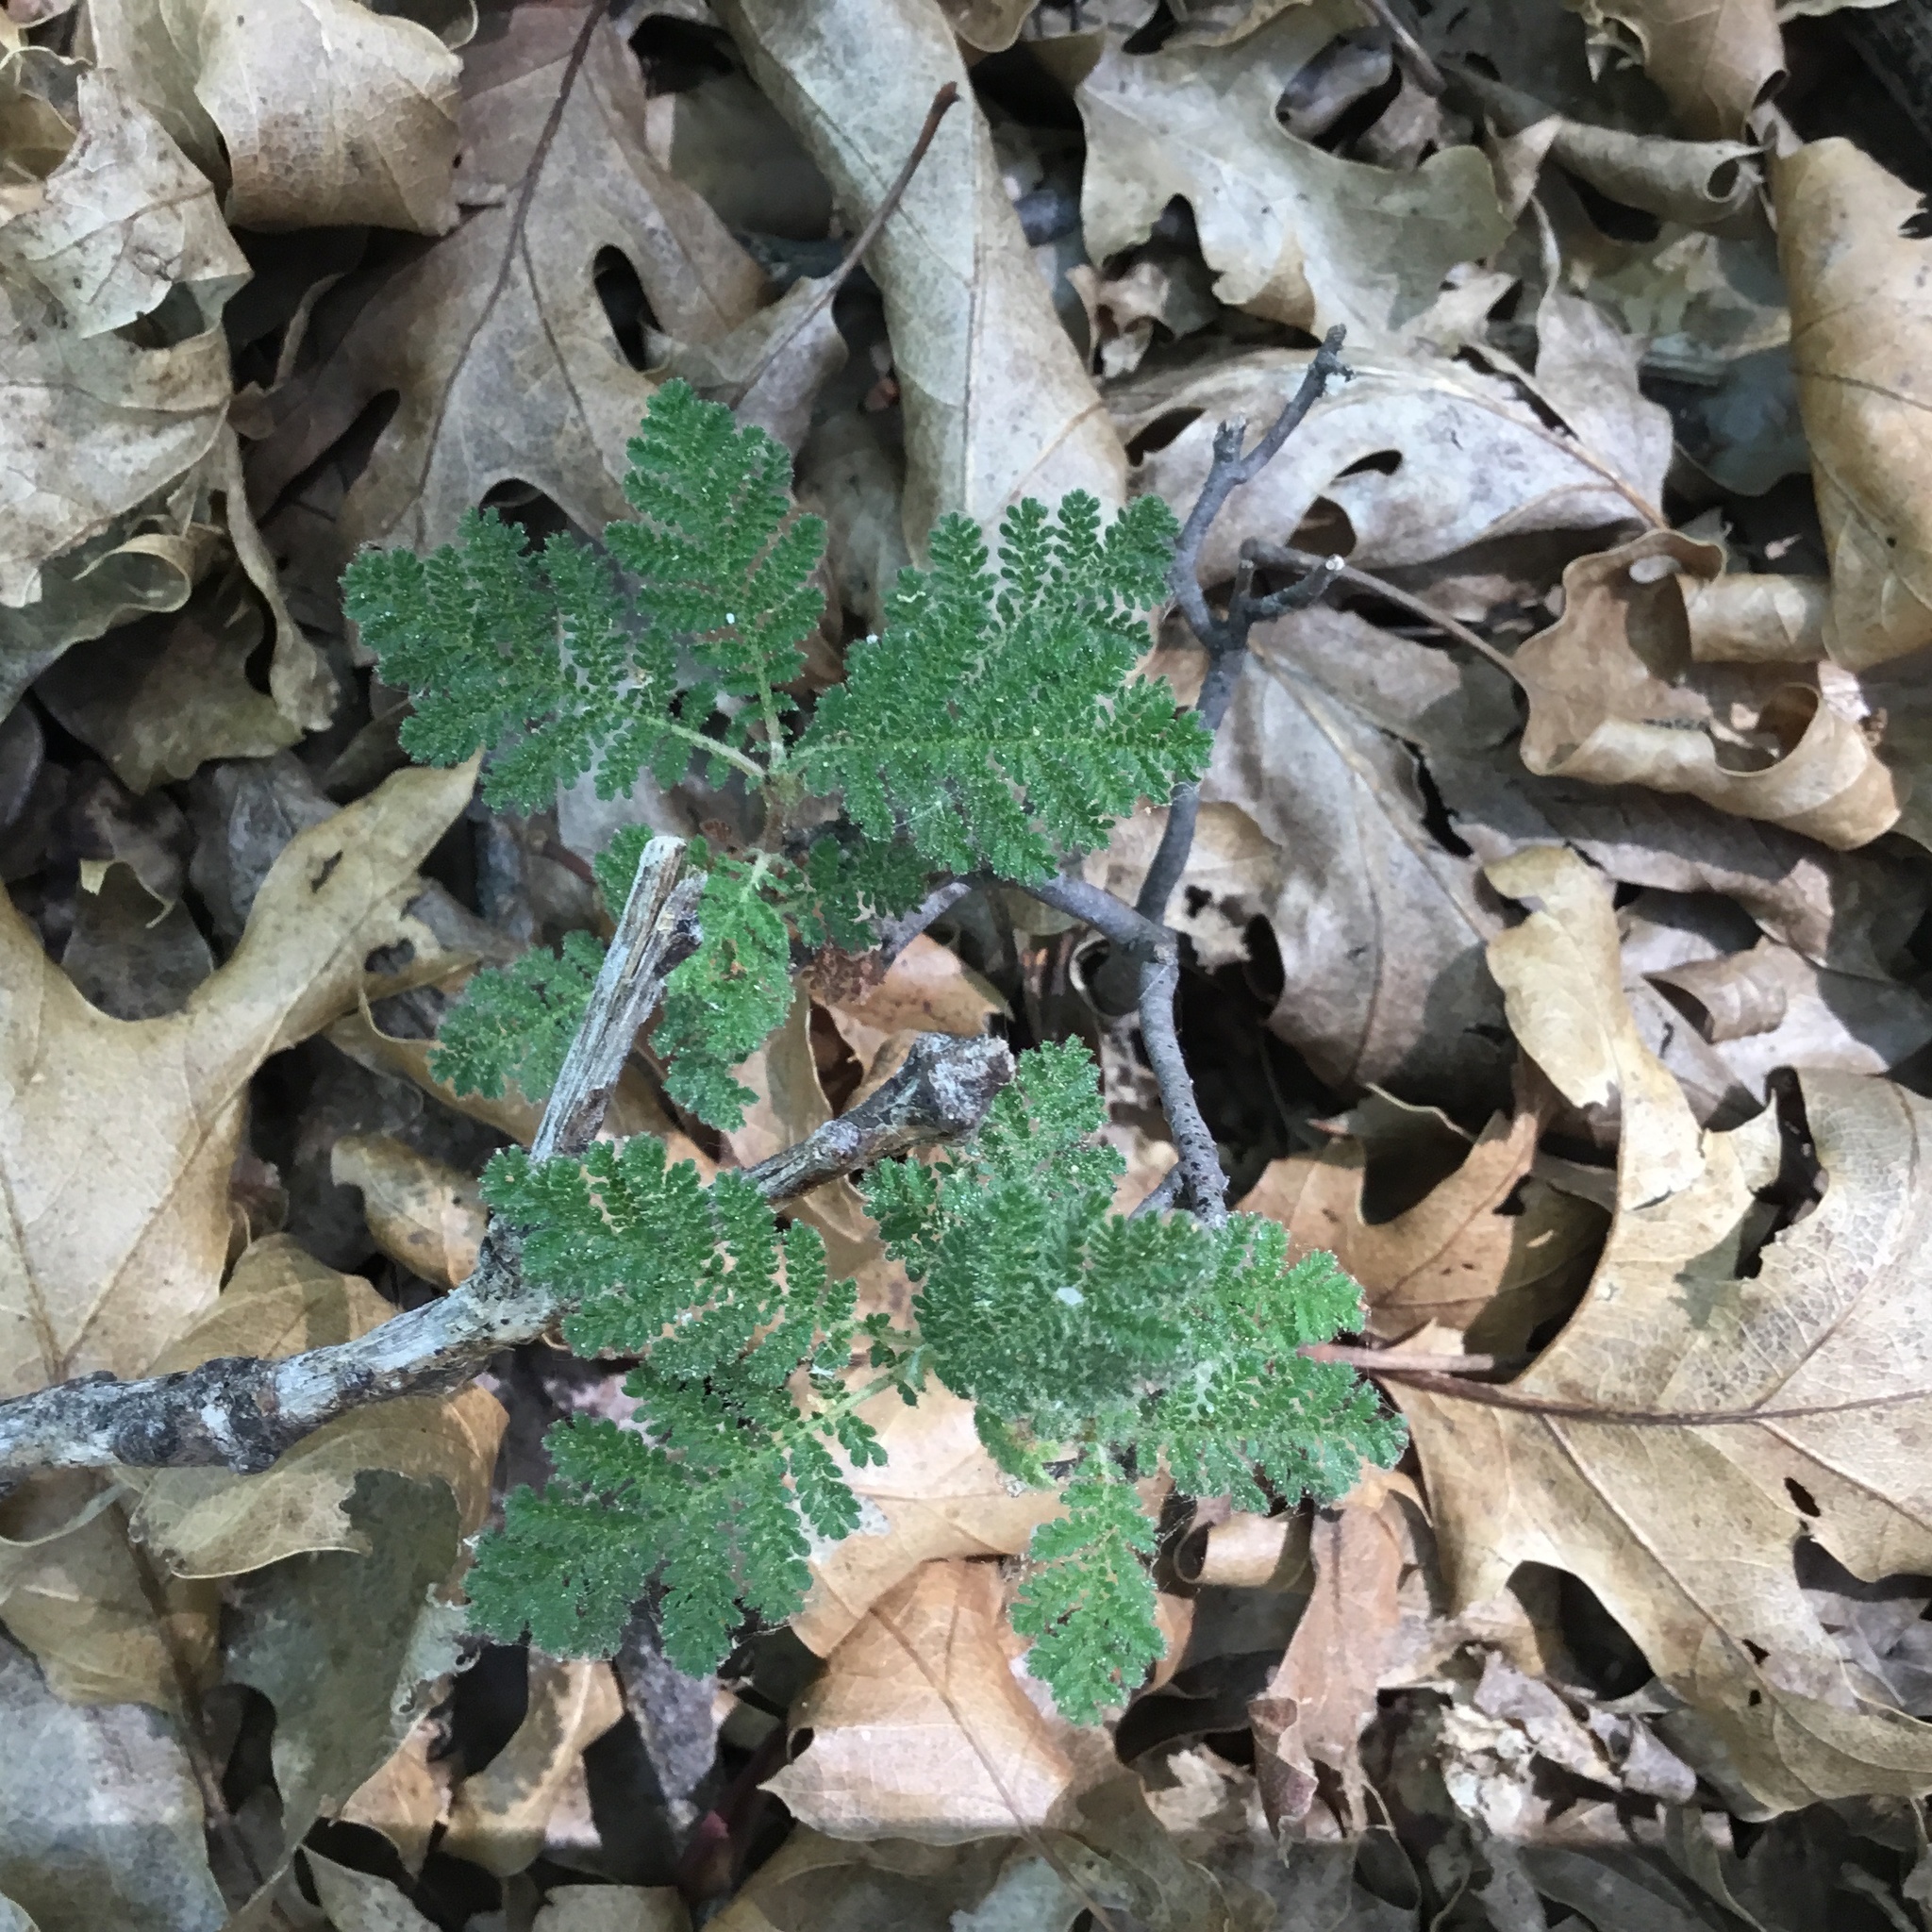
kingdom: Plantae
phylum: Tracheophyta
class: Magnoliopsida
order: Rosales
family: Rosaceae
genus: Chamaebatia
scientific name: Chamaebatia foliolosa
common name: Mountain misery
